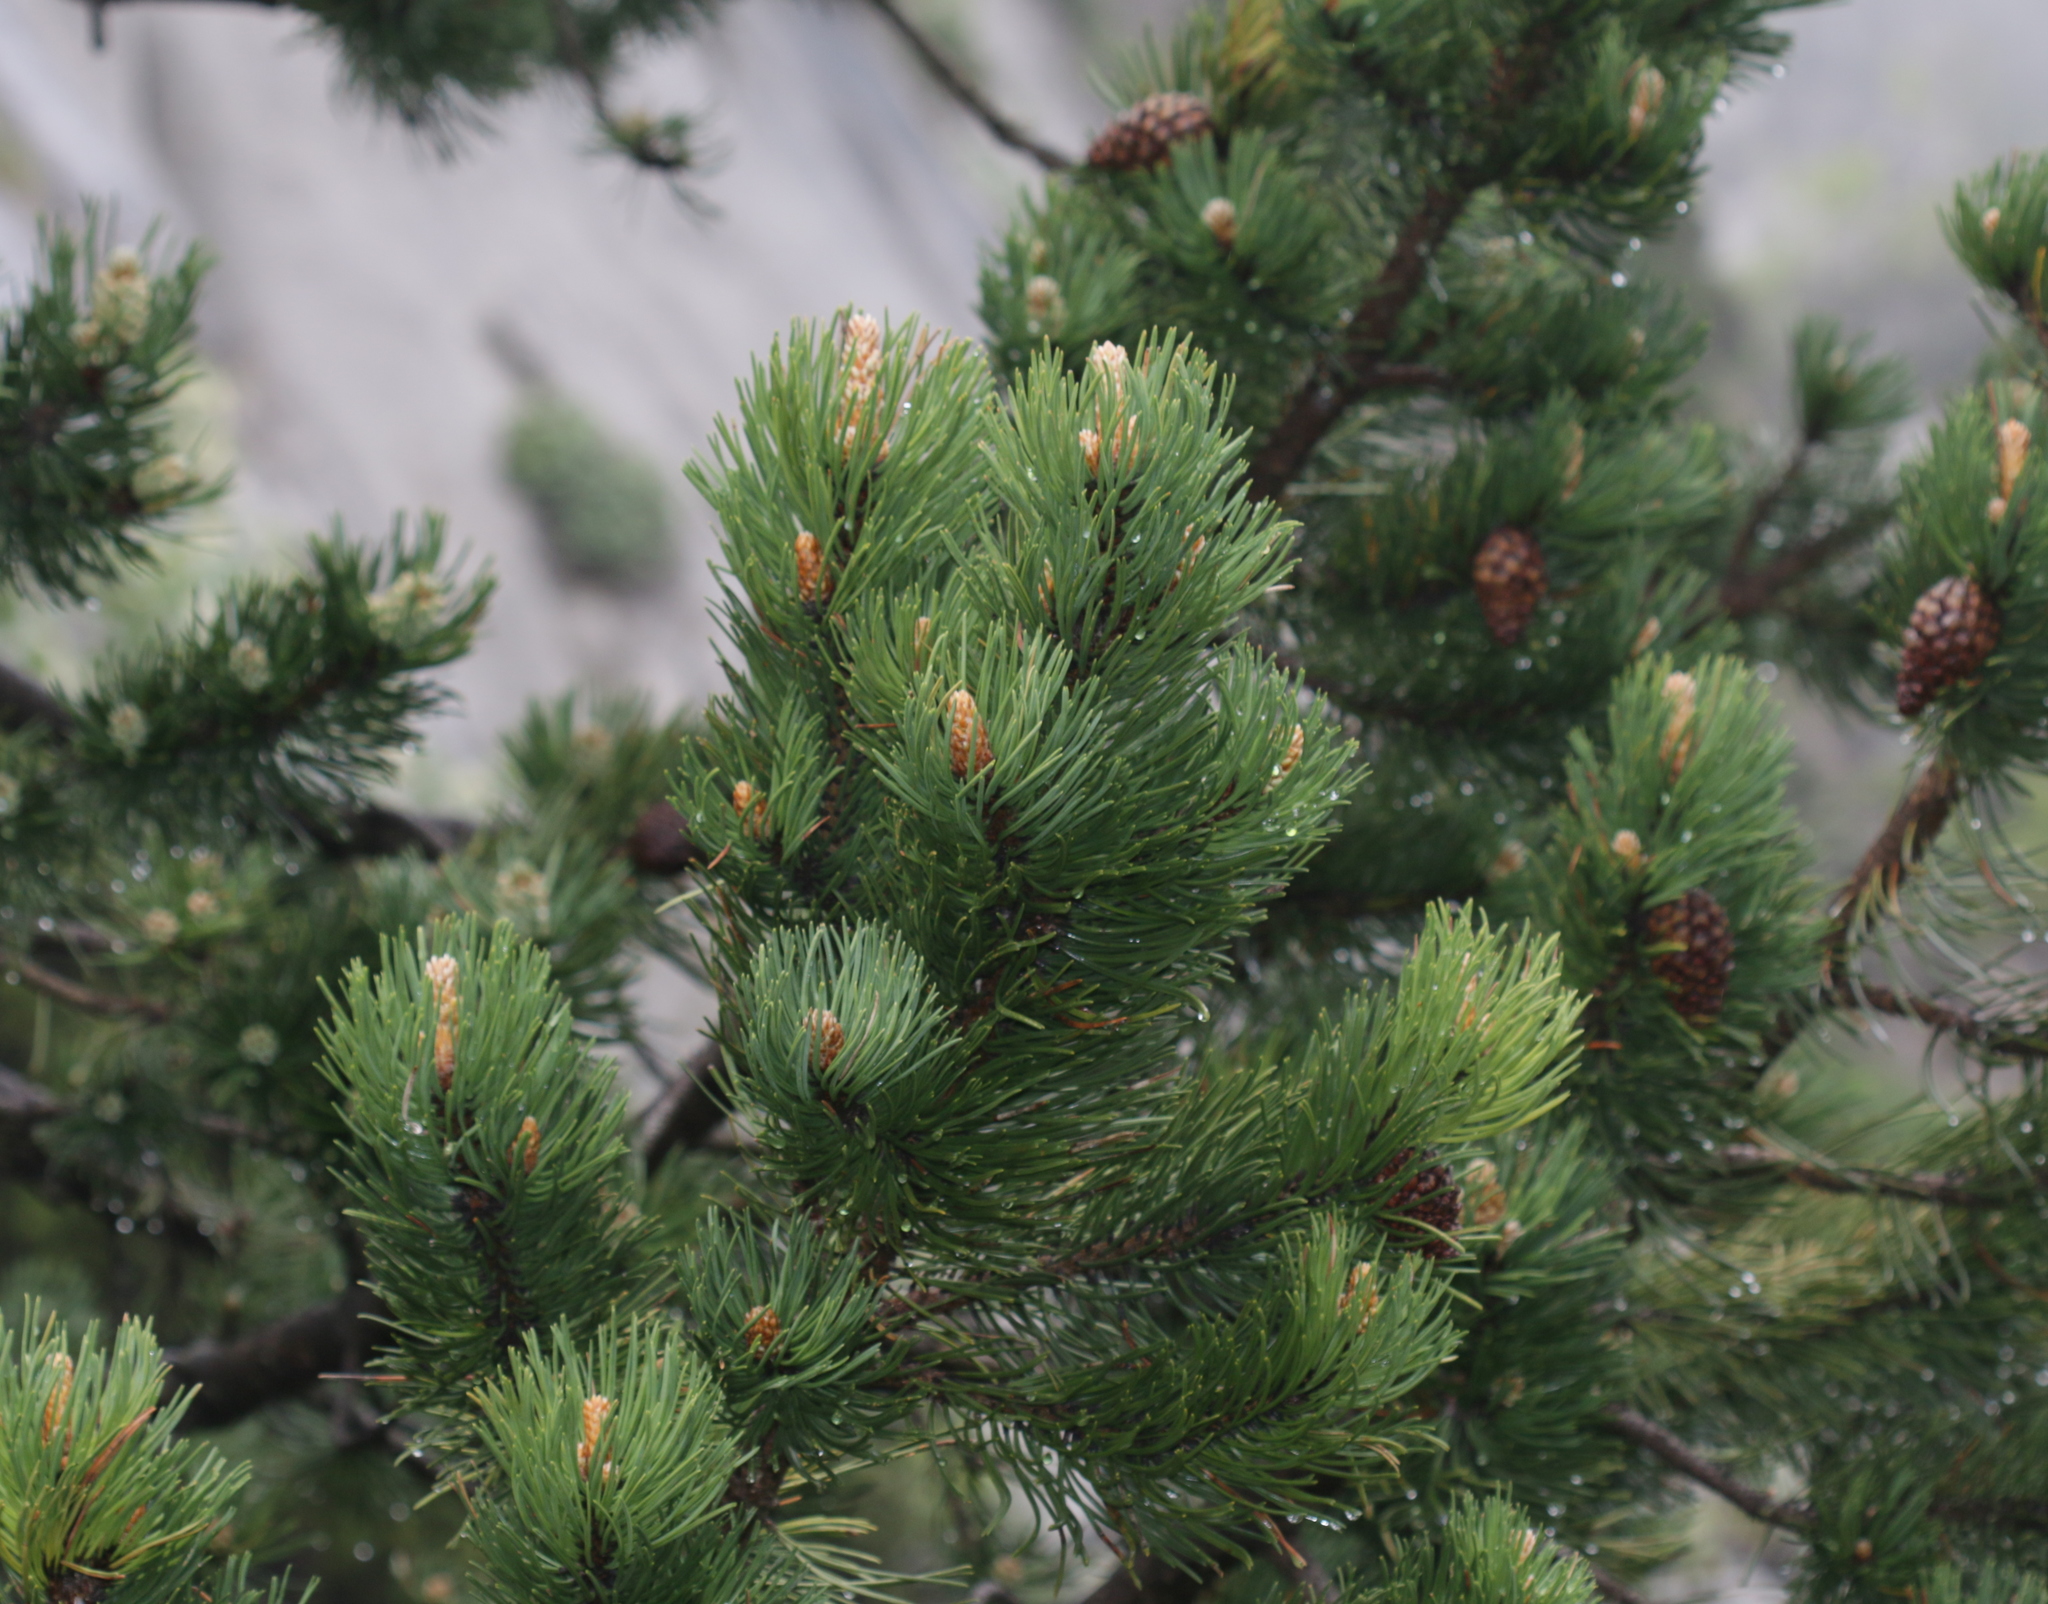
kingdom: Plantae
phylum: Tracheophyta
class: Pinopsida
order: Pinales
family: Pinaceae
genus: Pinus
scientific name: Pinus uncinata
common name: Mountain pine
